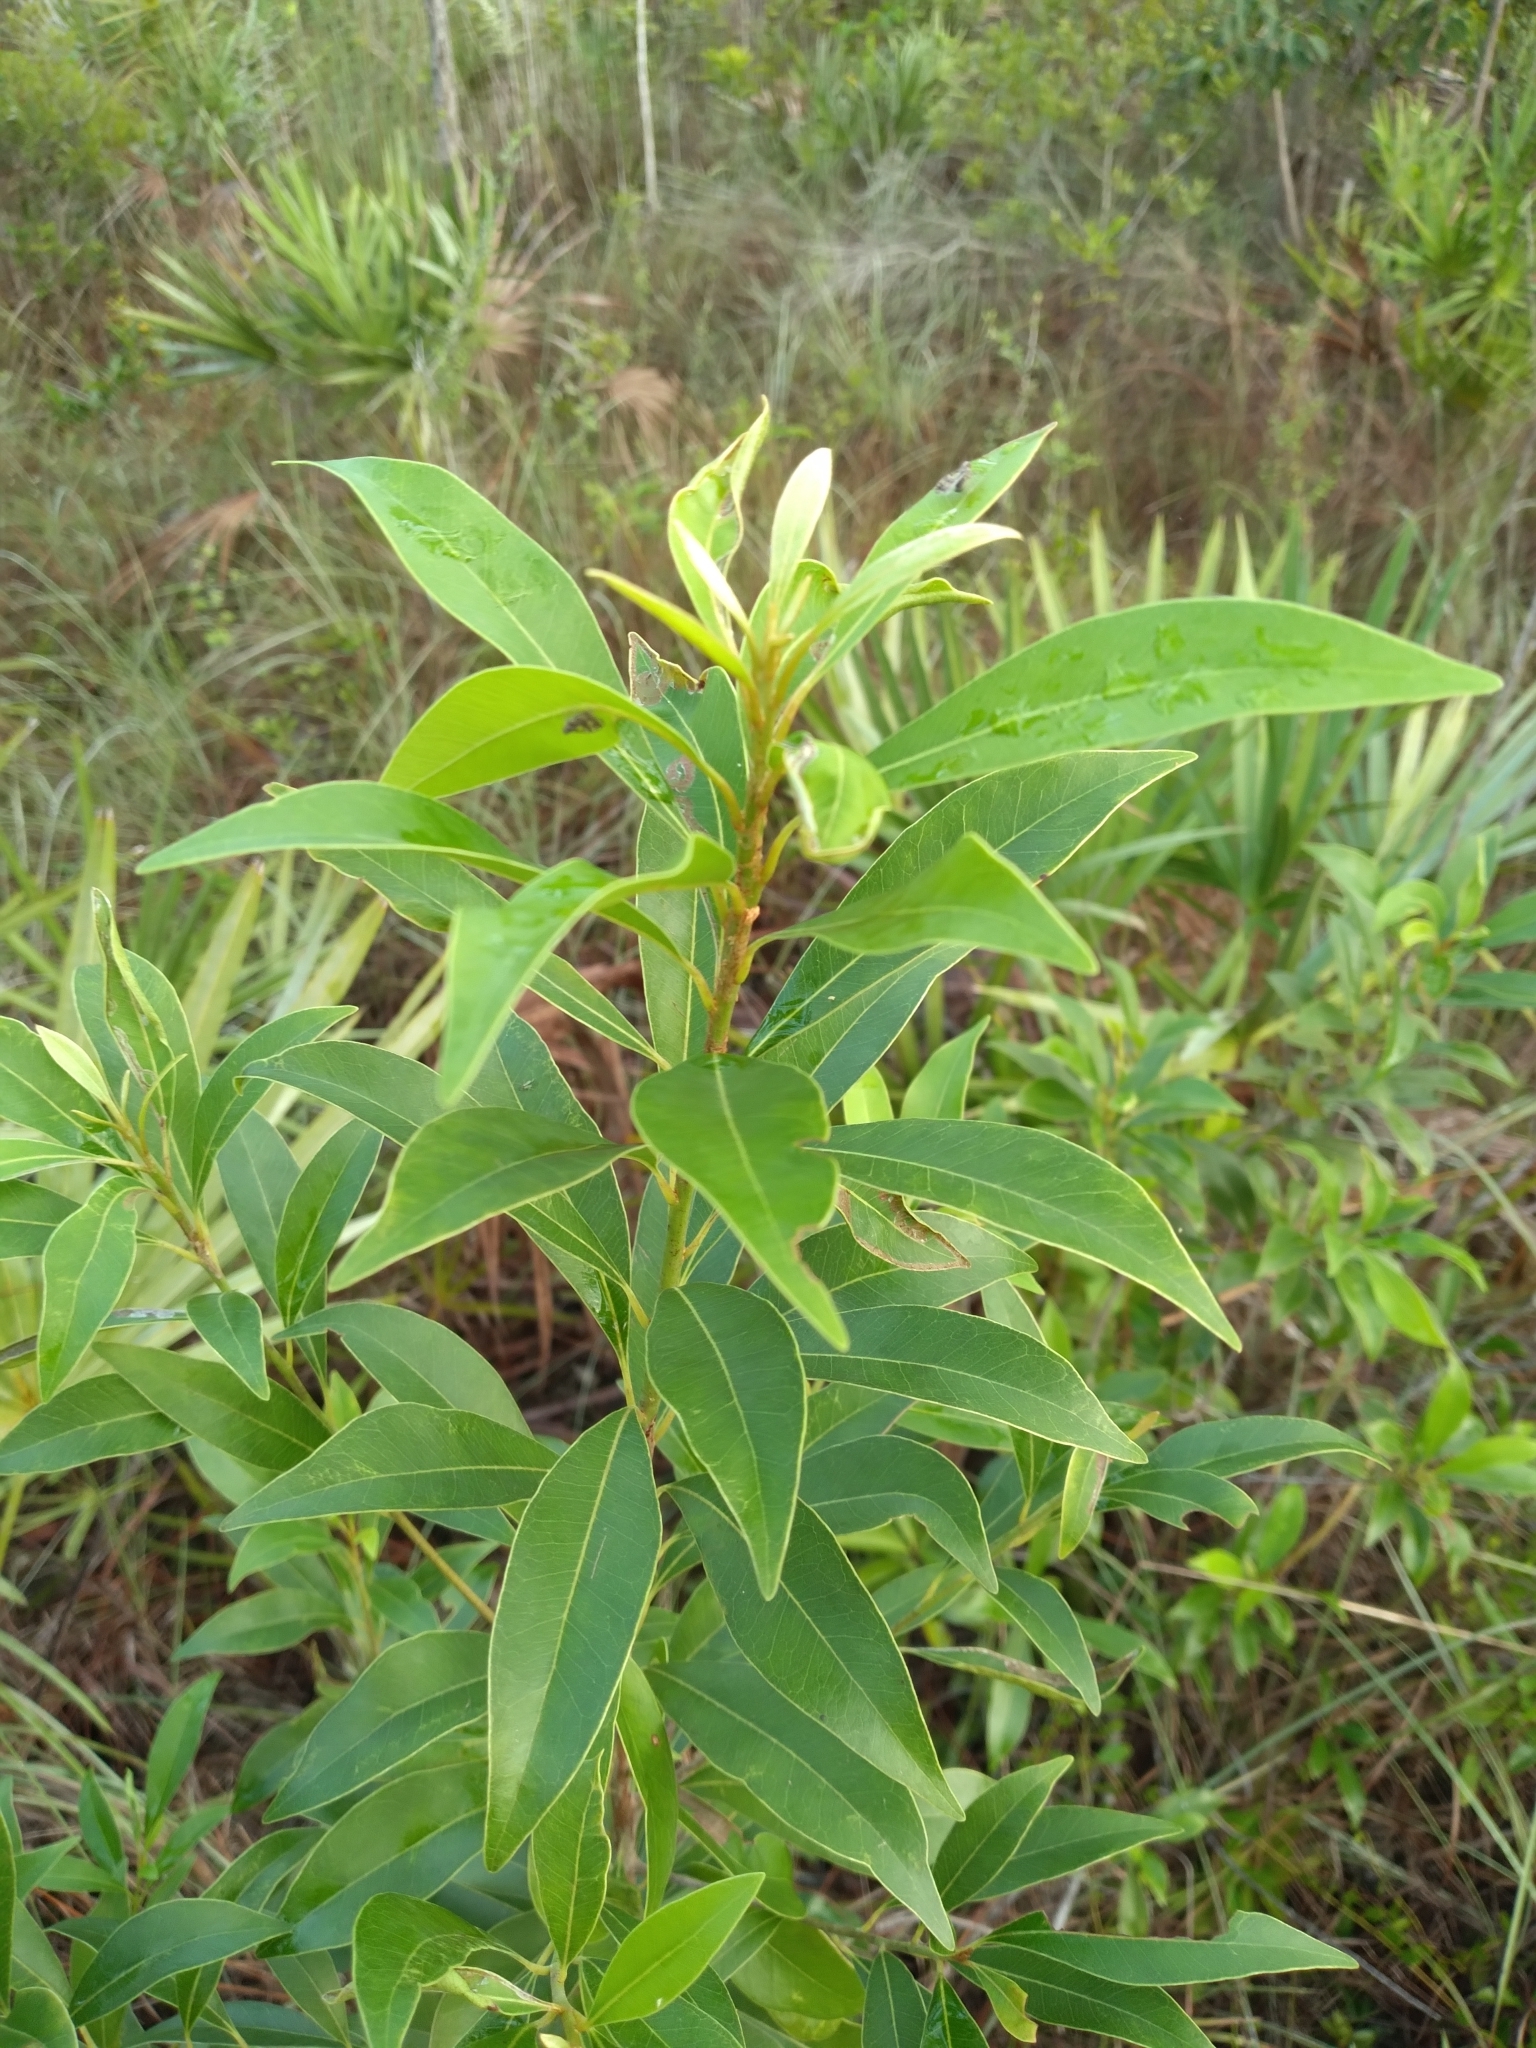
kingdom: Plantae
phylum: Tracheophyta
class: Magnoliopsida
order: Ericales
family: Sapotaceae
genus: Sideroxylon
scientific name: Sideroxylon salicifolium
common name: White bully
